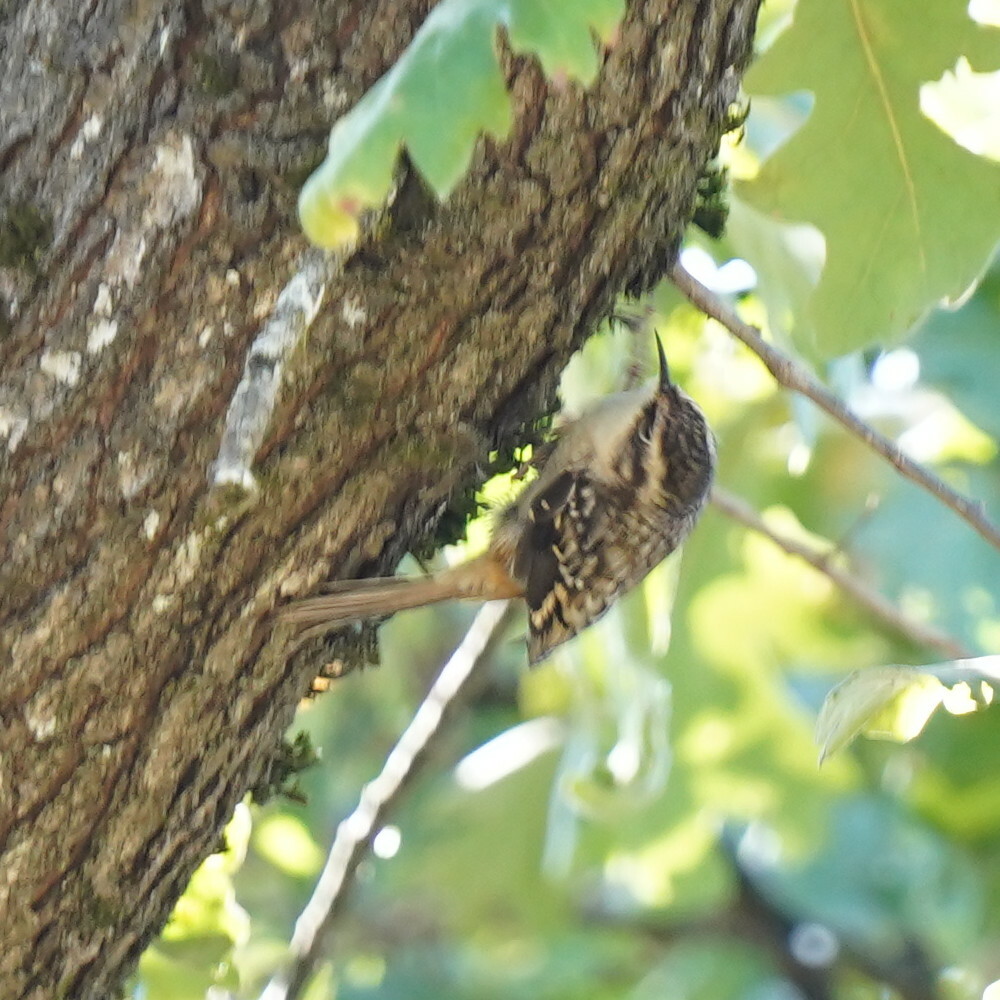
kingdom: Animalia
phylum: Chordata
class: Aves
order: Passeriformes
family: Certhiidae
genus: Certhia
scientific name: Certhia americana
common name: Brown creeper
